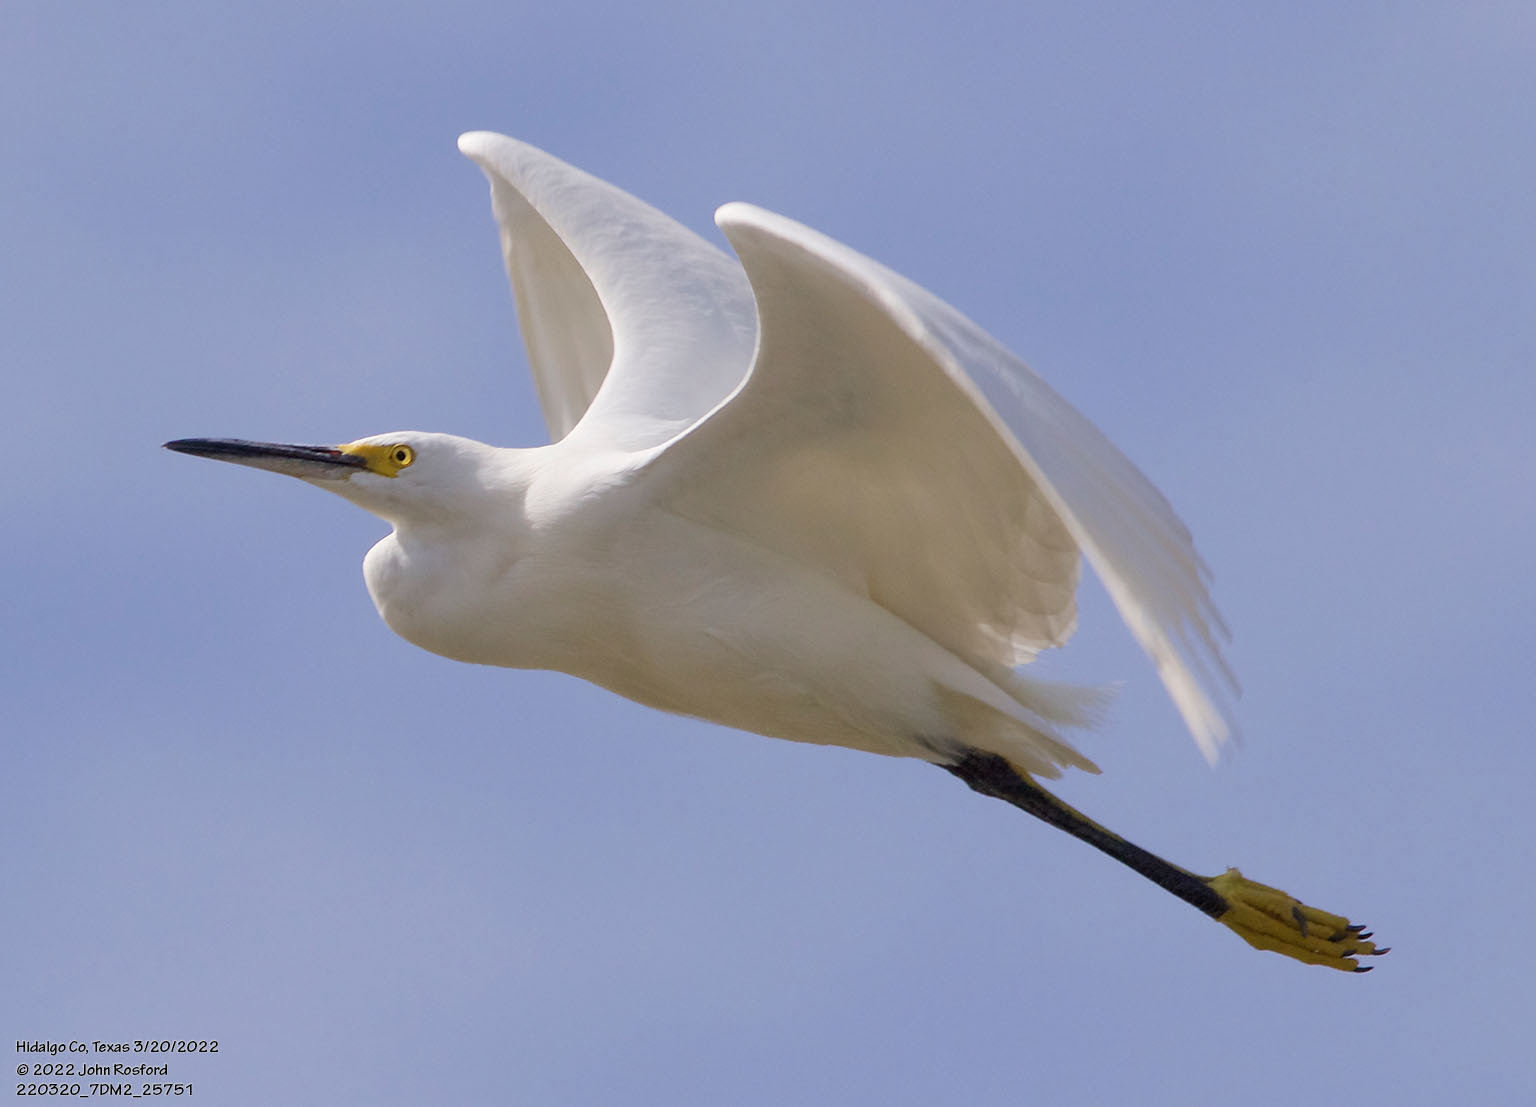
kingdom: Animalia
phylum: Chordata
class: Aves
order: Pelecaniformes
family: Ardeidae
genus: Egretta
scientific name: Egretta thula
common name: Snowy egret
